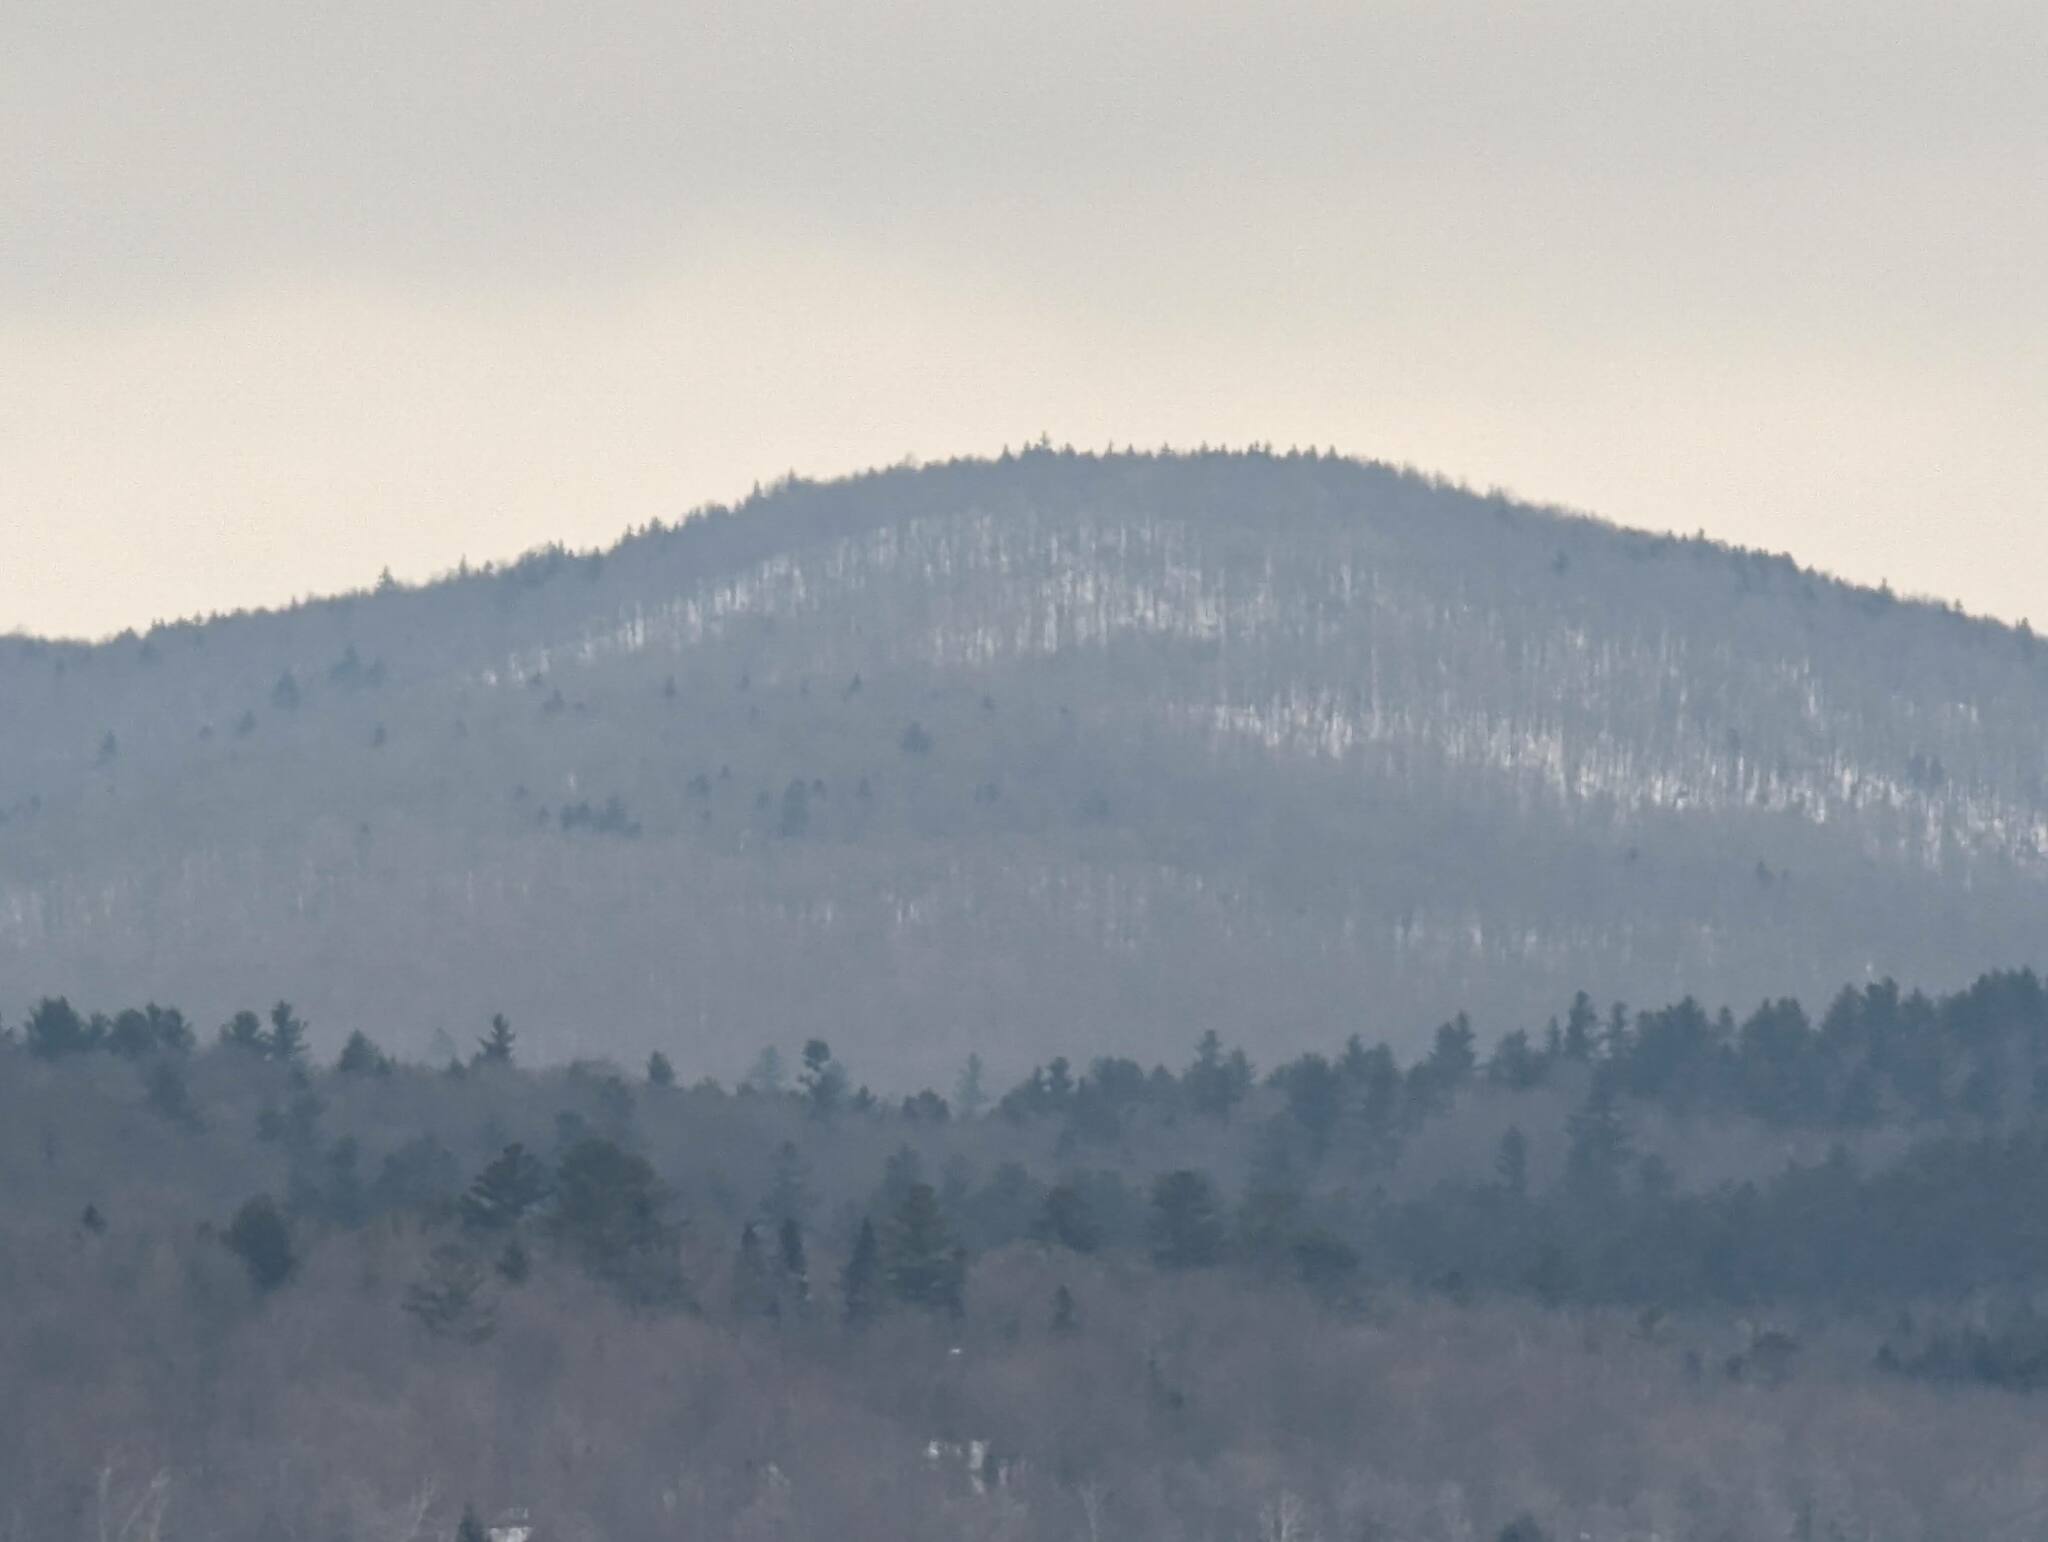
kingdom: Plantae
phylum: Tracheophyta
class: Pinopsida
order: Pinales
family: Pinaceae
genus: Pinus
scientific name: Pinus strobus
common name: Weymouth pine
